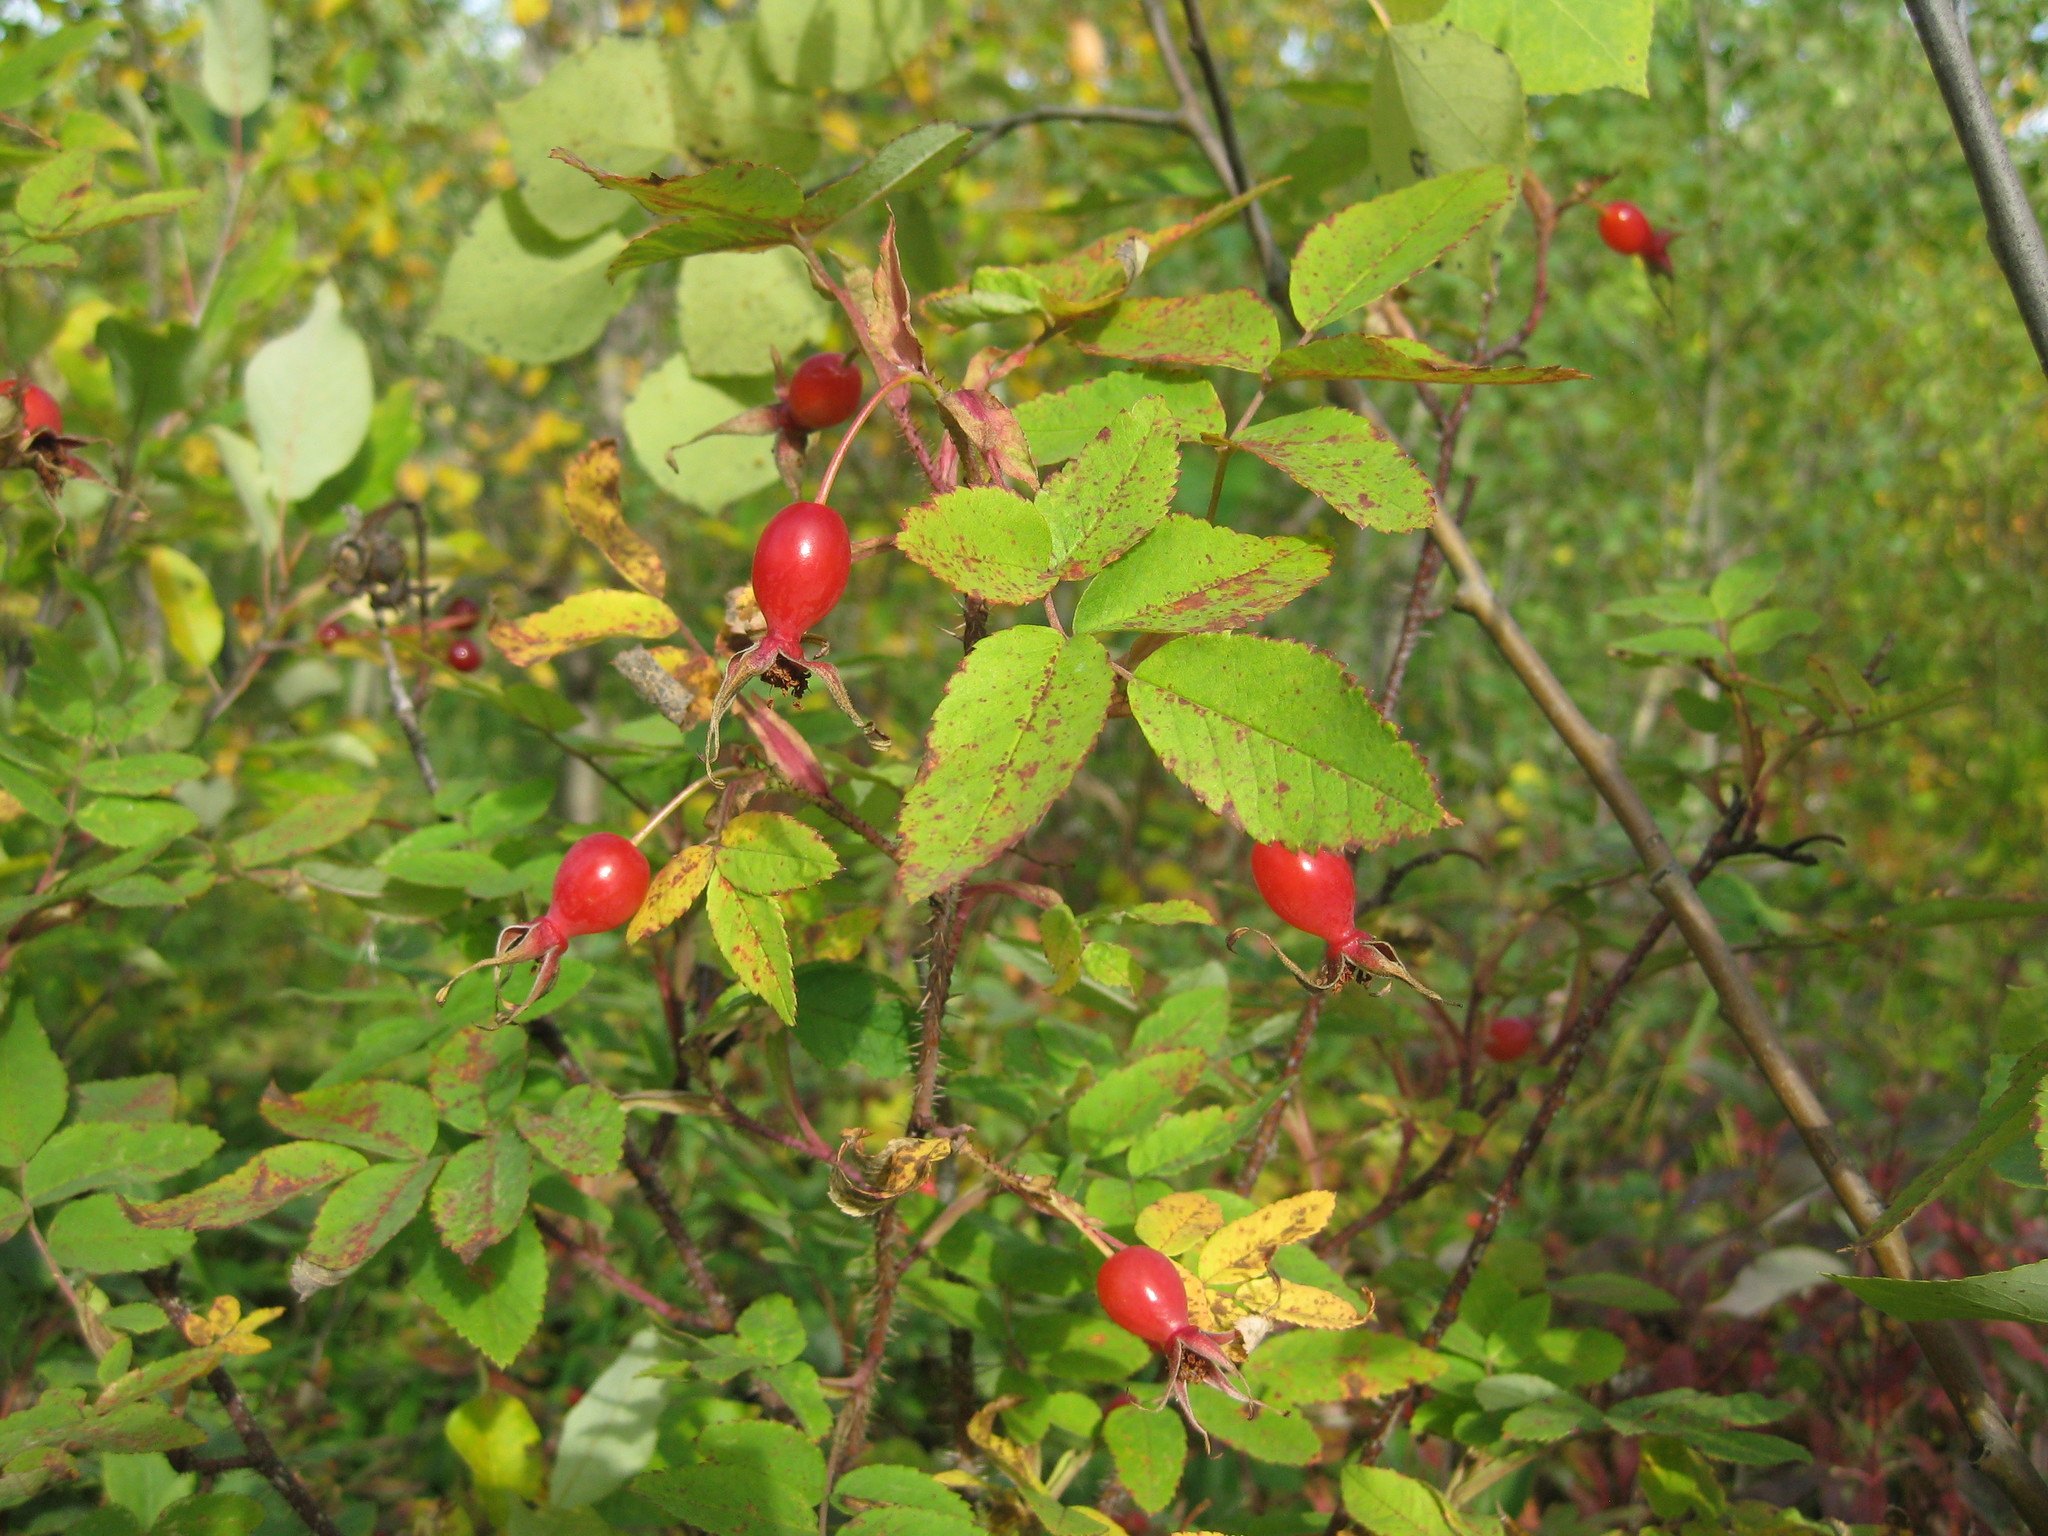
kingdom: Plantae
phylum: Tracheophyta
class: Magnoliopsida
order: Rosales
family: Rosaceae
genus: Rosa
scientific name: Rosa acicularis
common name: Prickly rose
